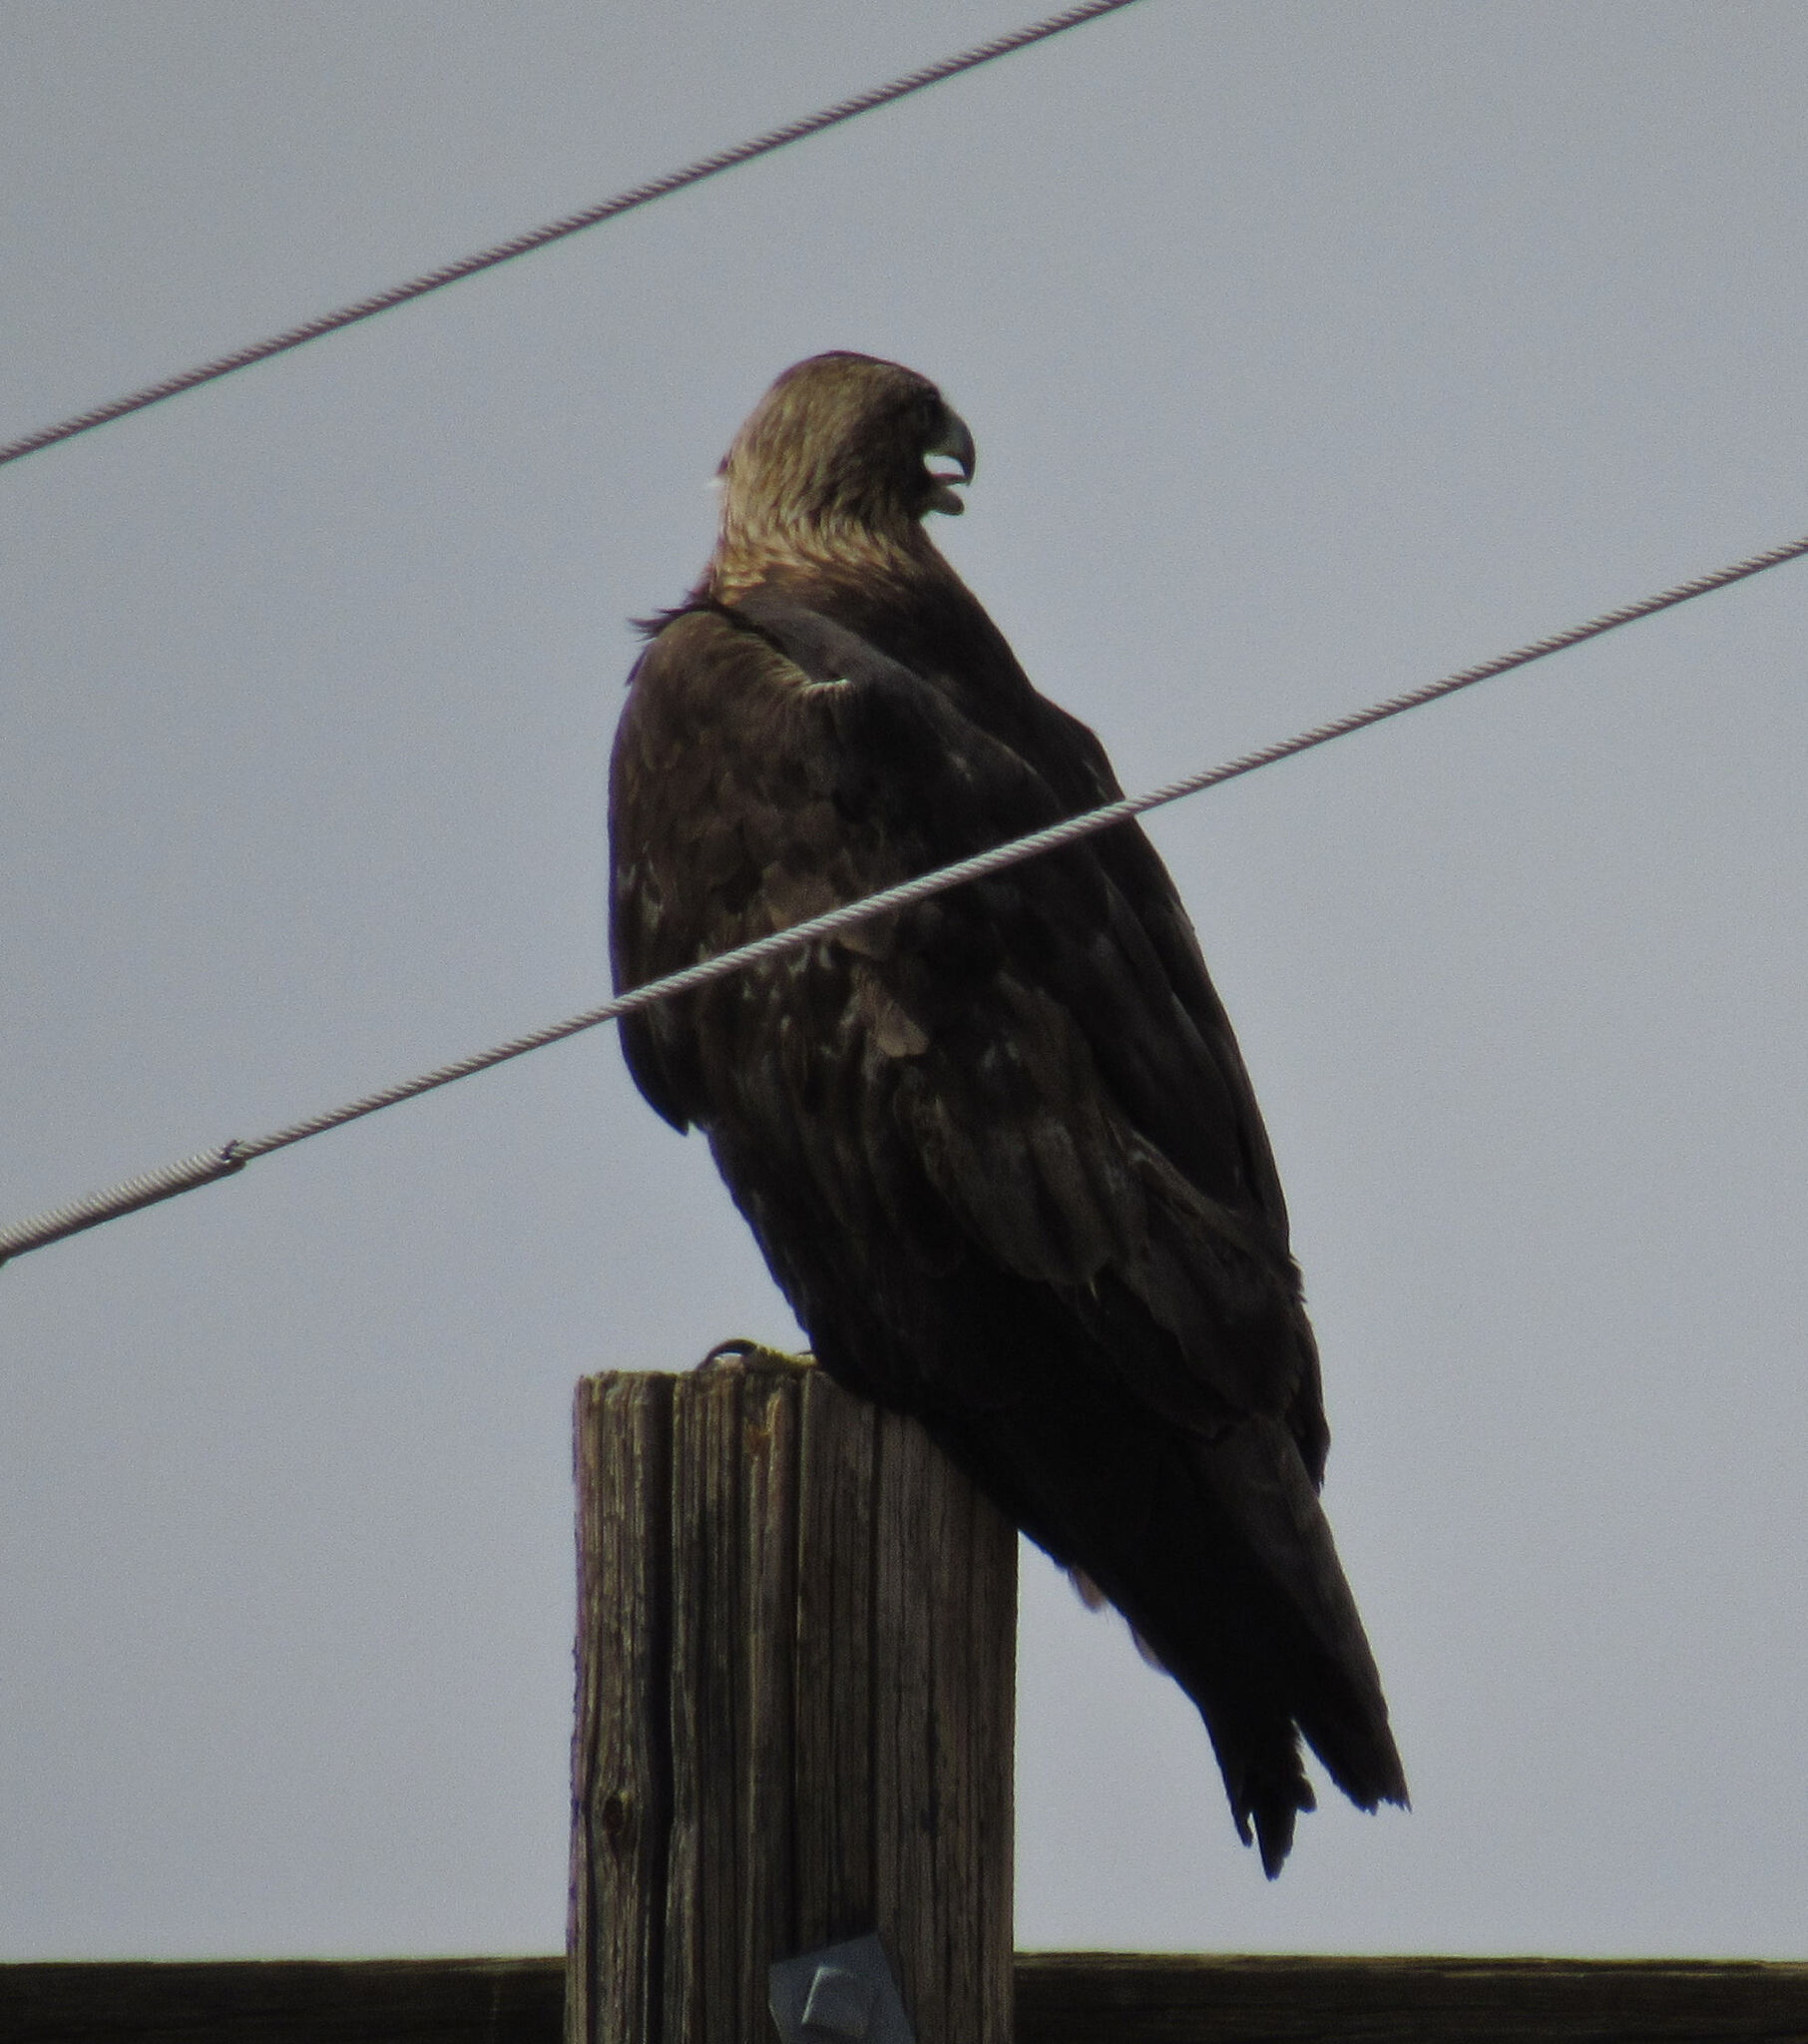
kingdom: Animalia
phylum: Chordata
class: Aves
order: Accipitriformes
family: Accipitridae
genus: Aquila
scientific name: Aquila chrysaetos
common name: Golden eagle
